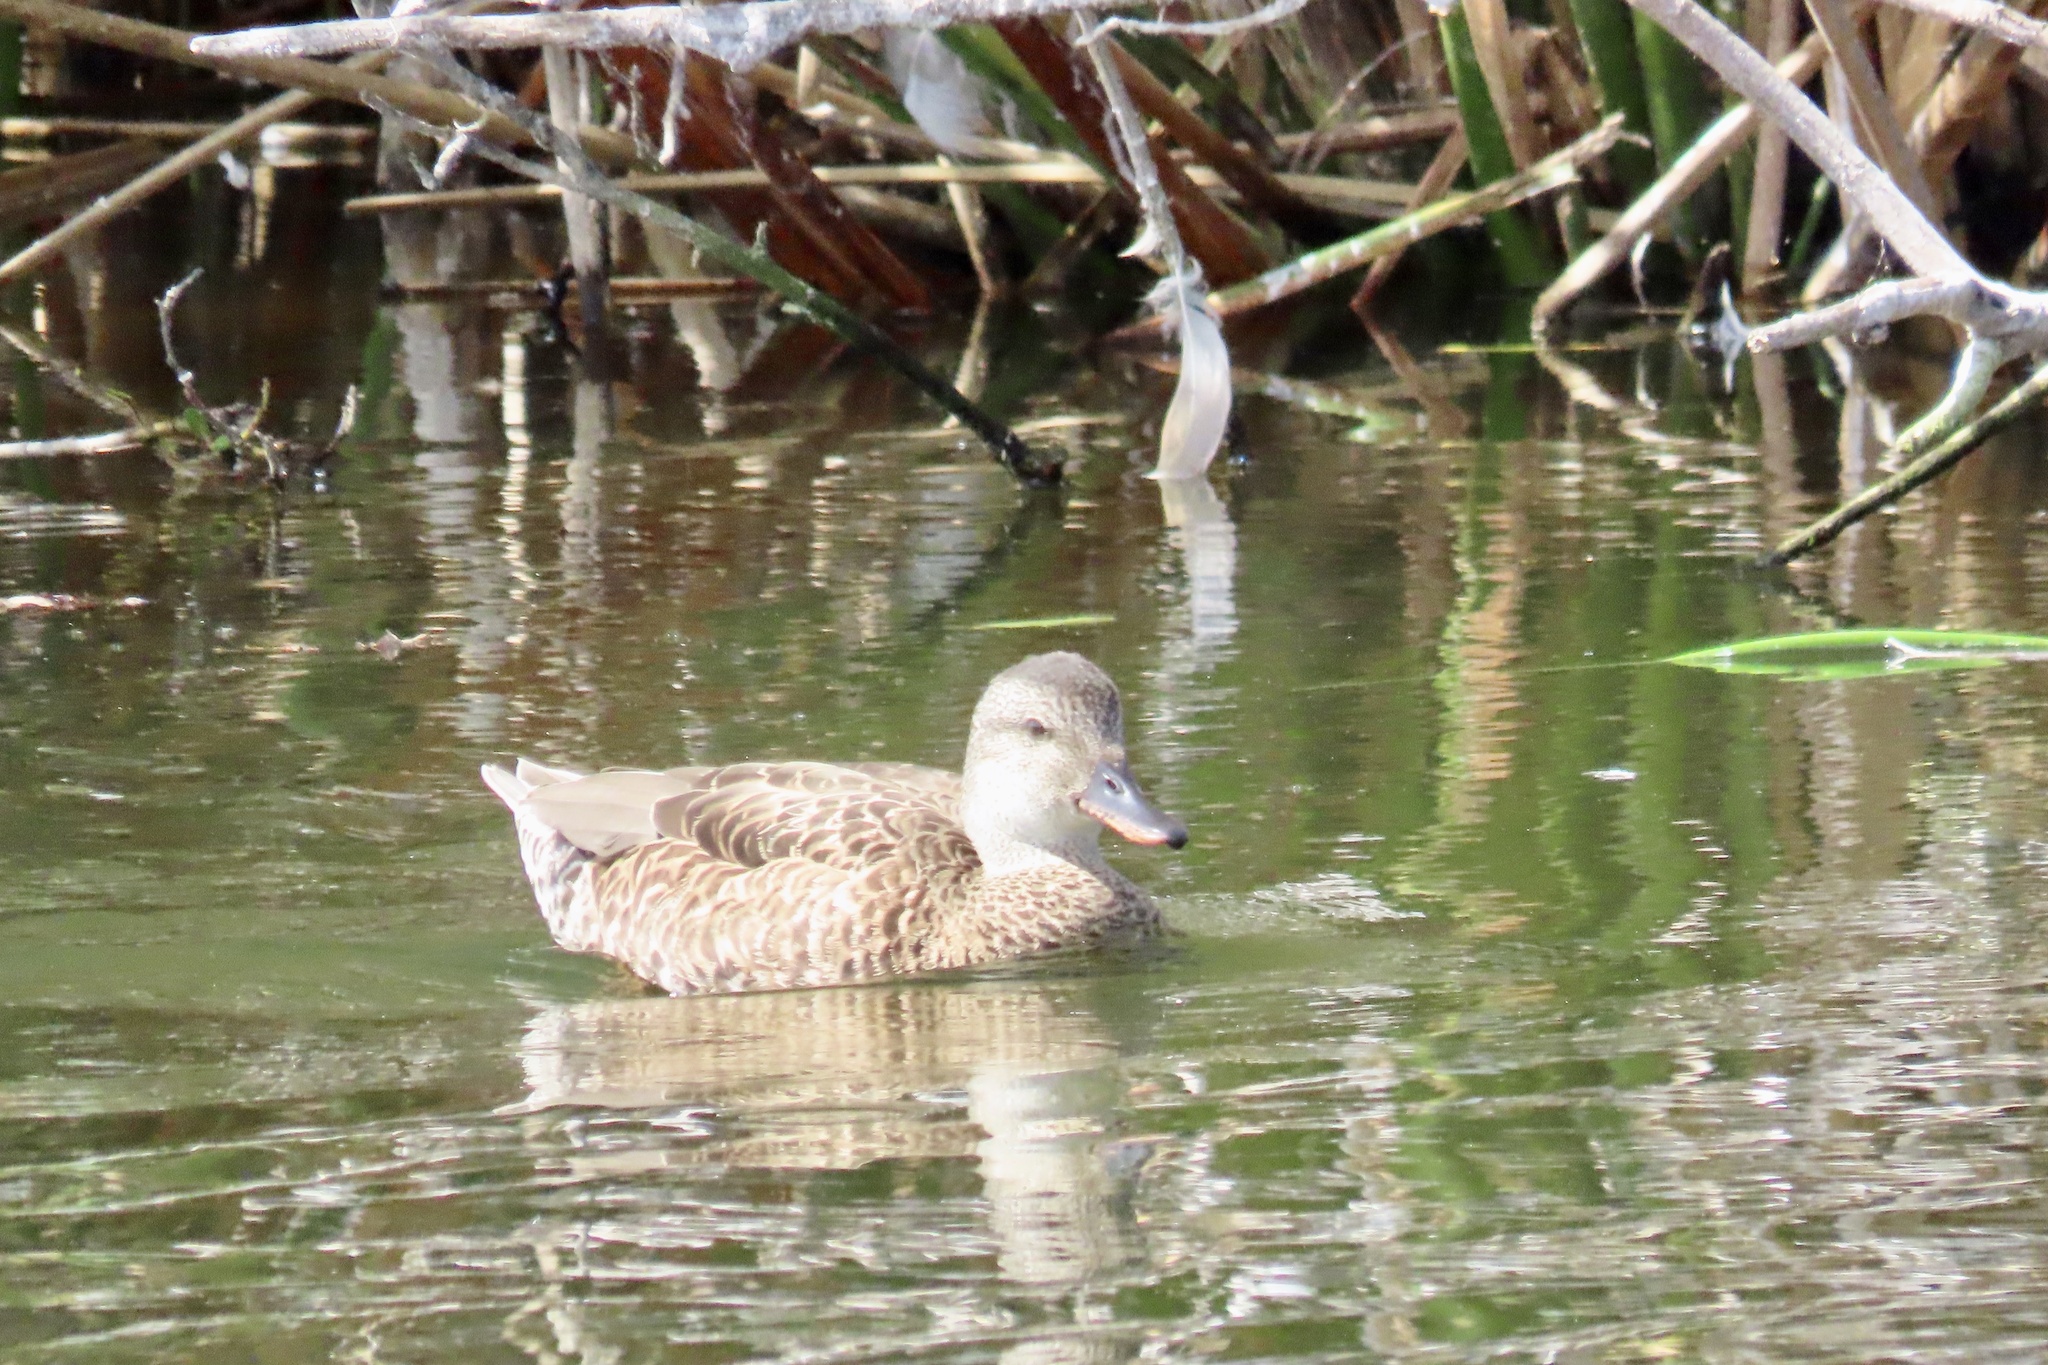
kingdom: Animalia
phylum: Chordata
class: Aves
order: Anseriformes
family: Anatidae
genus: Mareca
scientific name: Mareca strepera
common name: Gadwall
